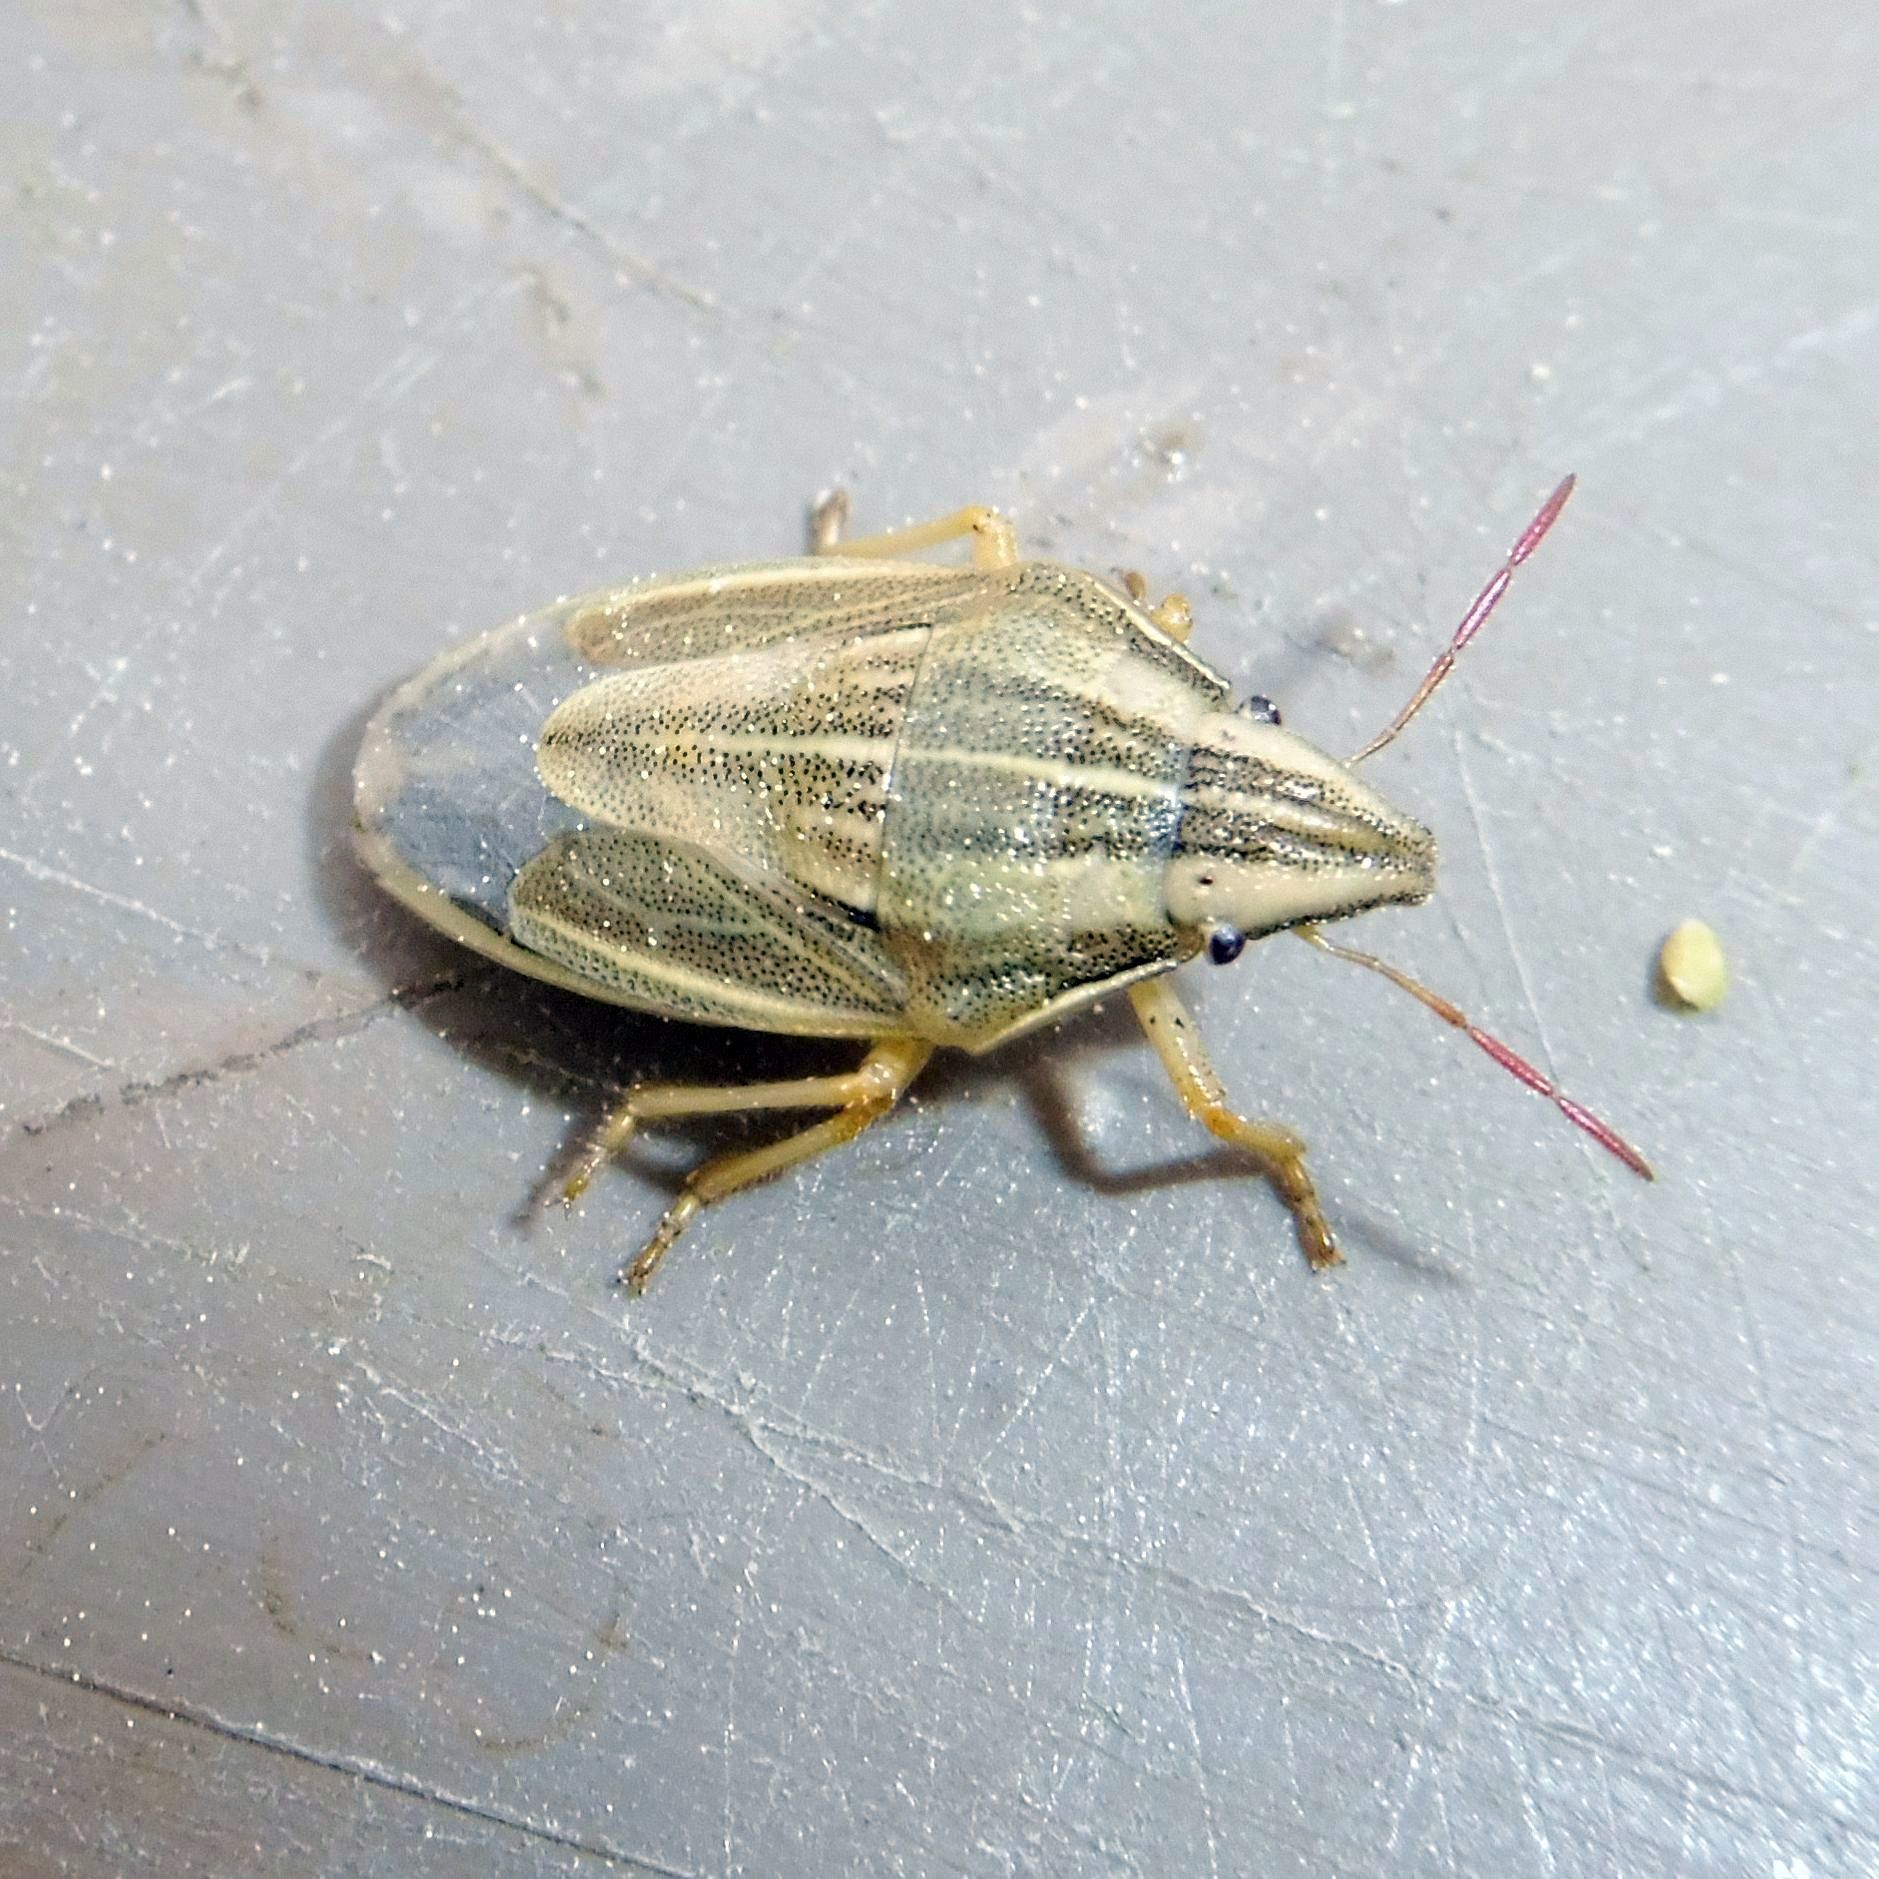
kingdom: Animalia
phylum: Arthropoda
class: Insecta
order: Hemiptera
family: Pentatomidae
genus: Aelia
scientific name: Aelia acuminata
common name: Bishop's mitre
